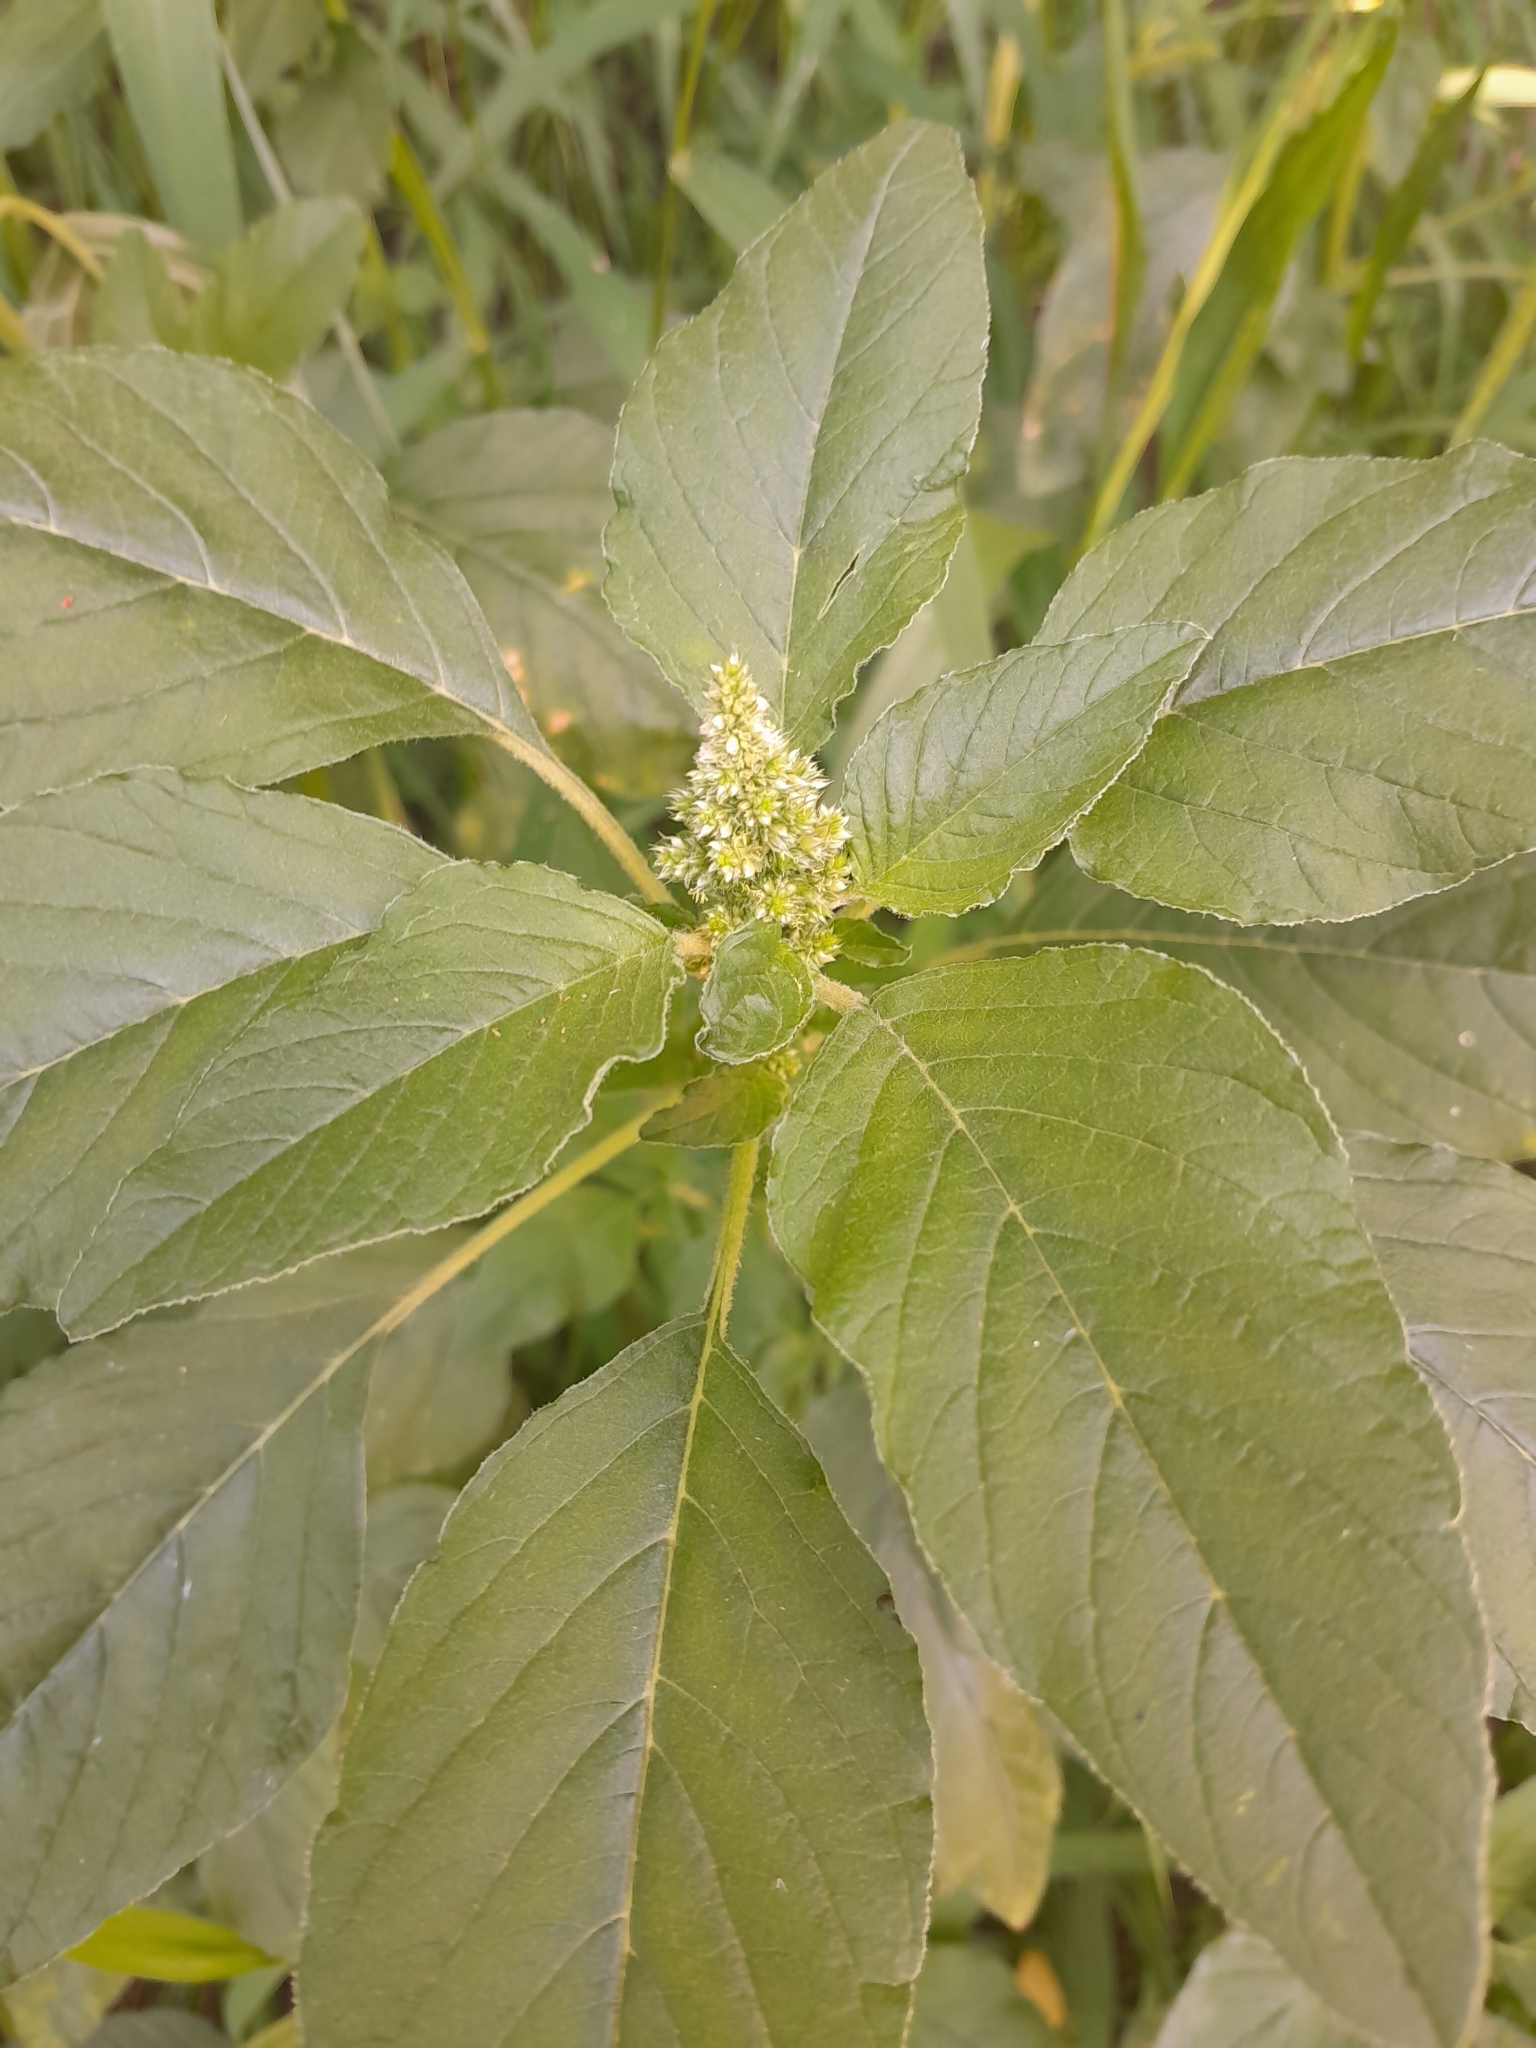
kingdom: Plantae
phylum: Tracheophyta
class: Magnoliopsida
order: Caryophyllales
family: Amaranthaceae
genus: Amaranthus
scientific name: Amaranthus retroflexus
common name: Redroot amaranth
